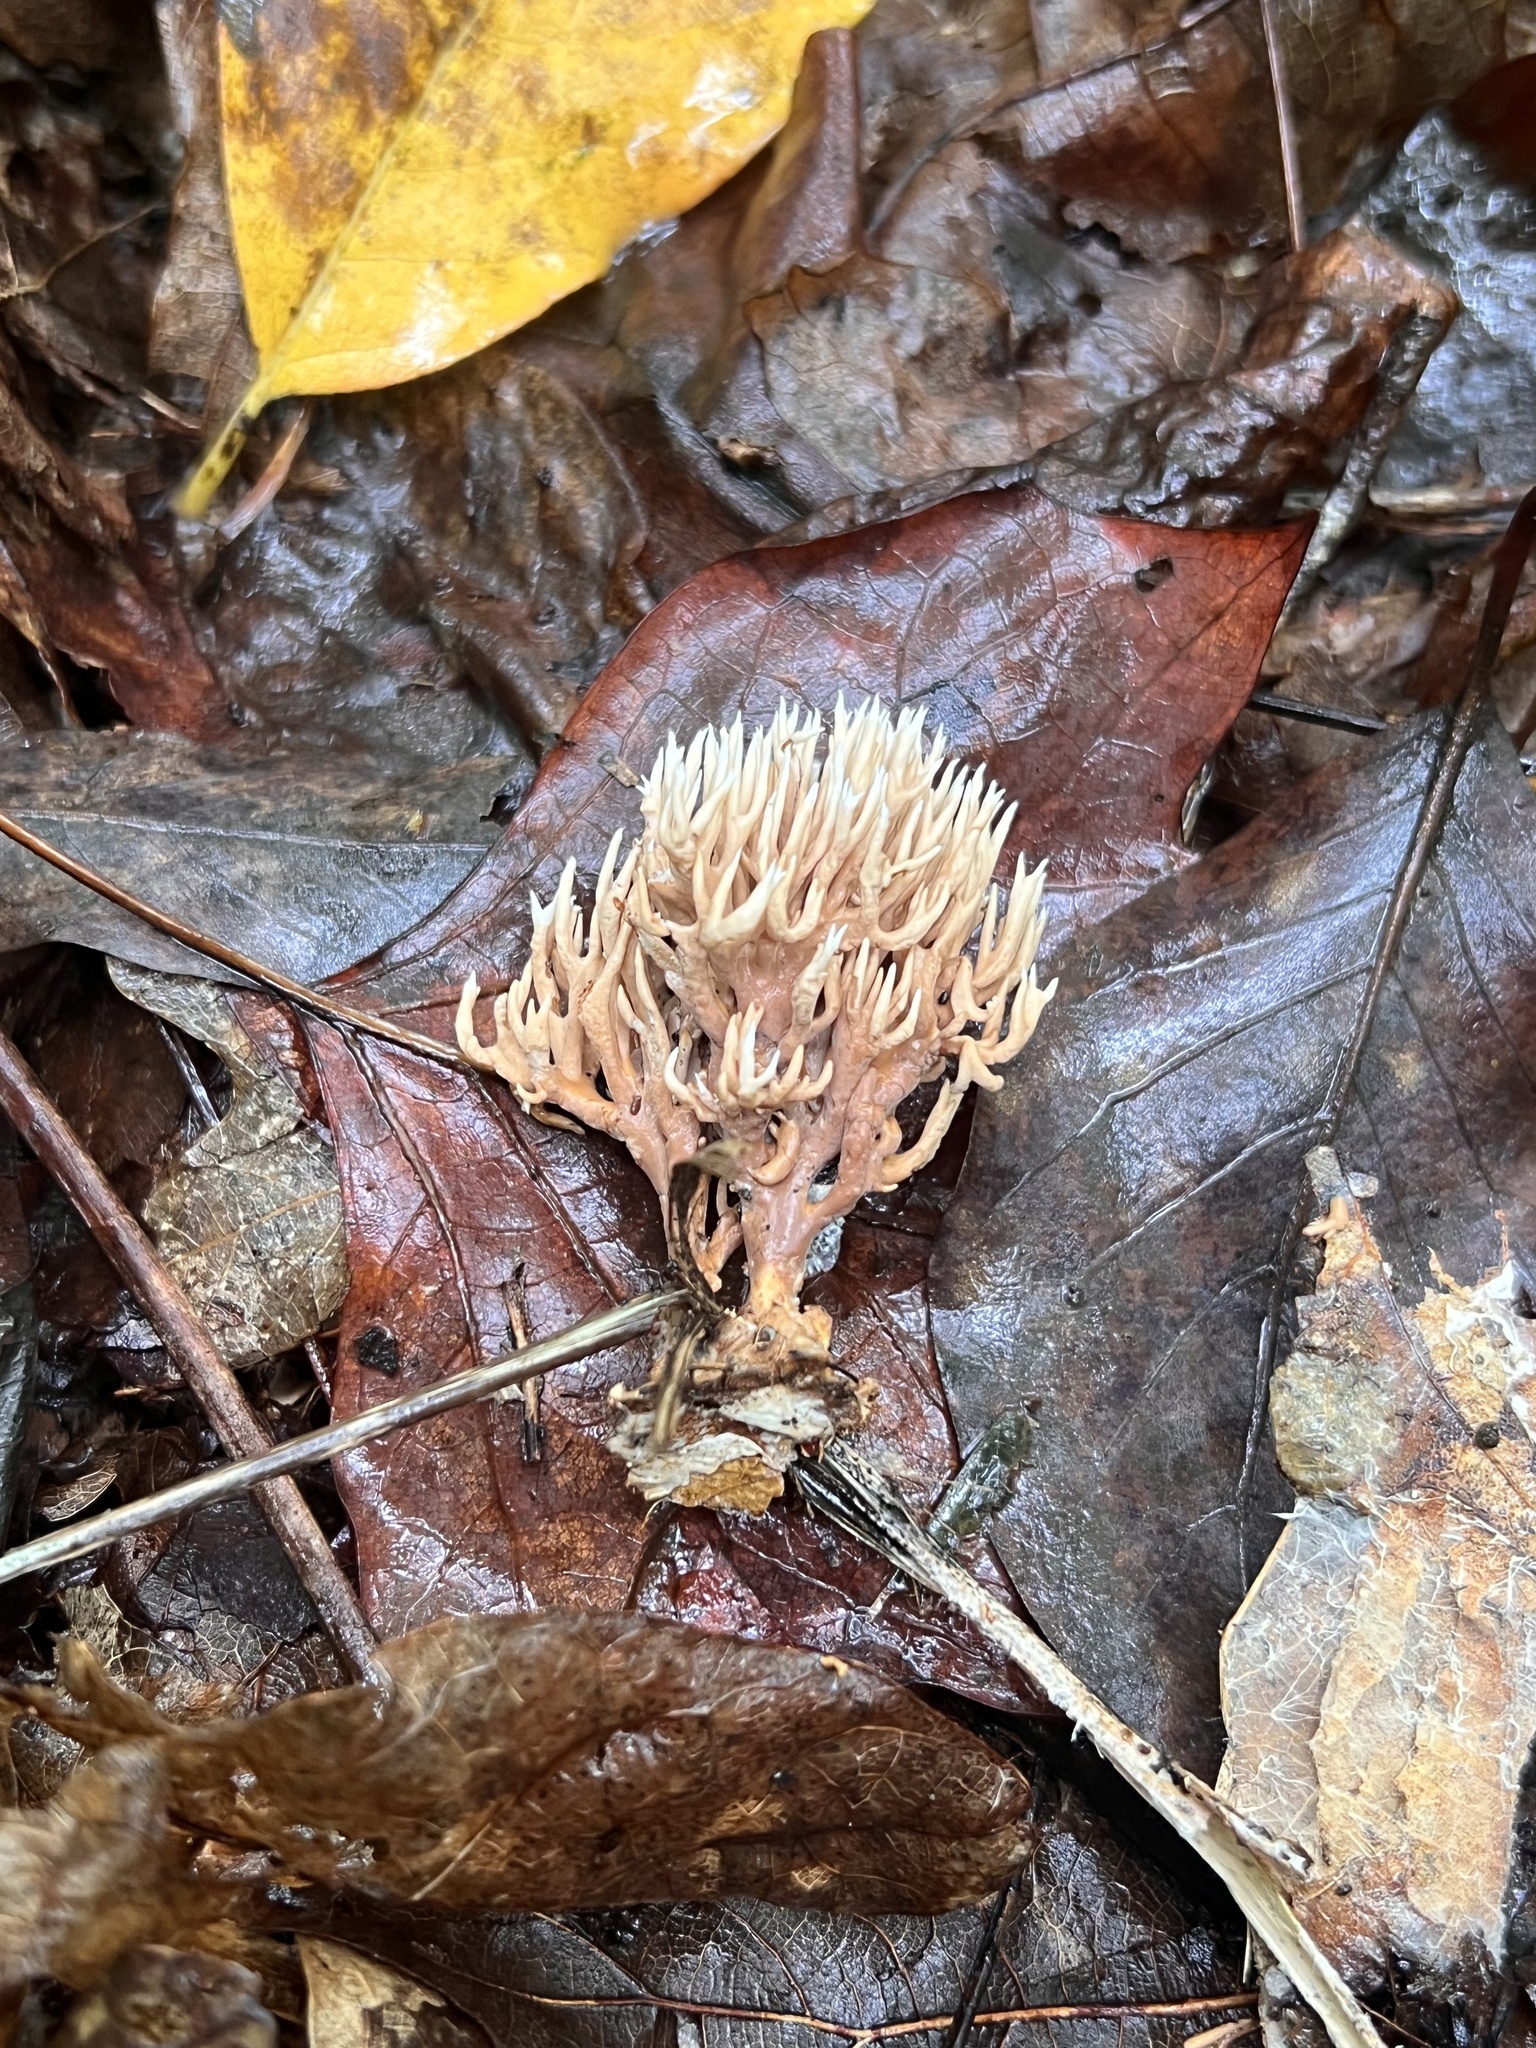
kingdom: Fungi
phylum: Basidiomycota
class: Agaricomycetes
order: Gomphales
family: Lentariaceae
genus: Lentaria
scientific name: Lentaria micheneri
